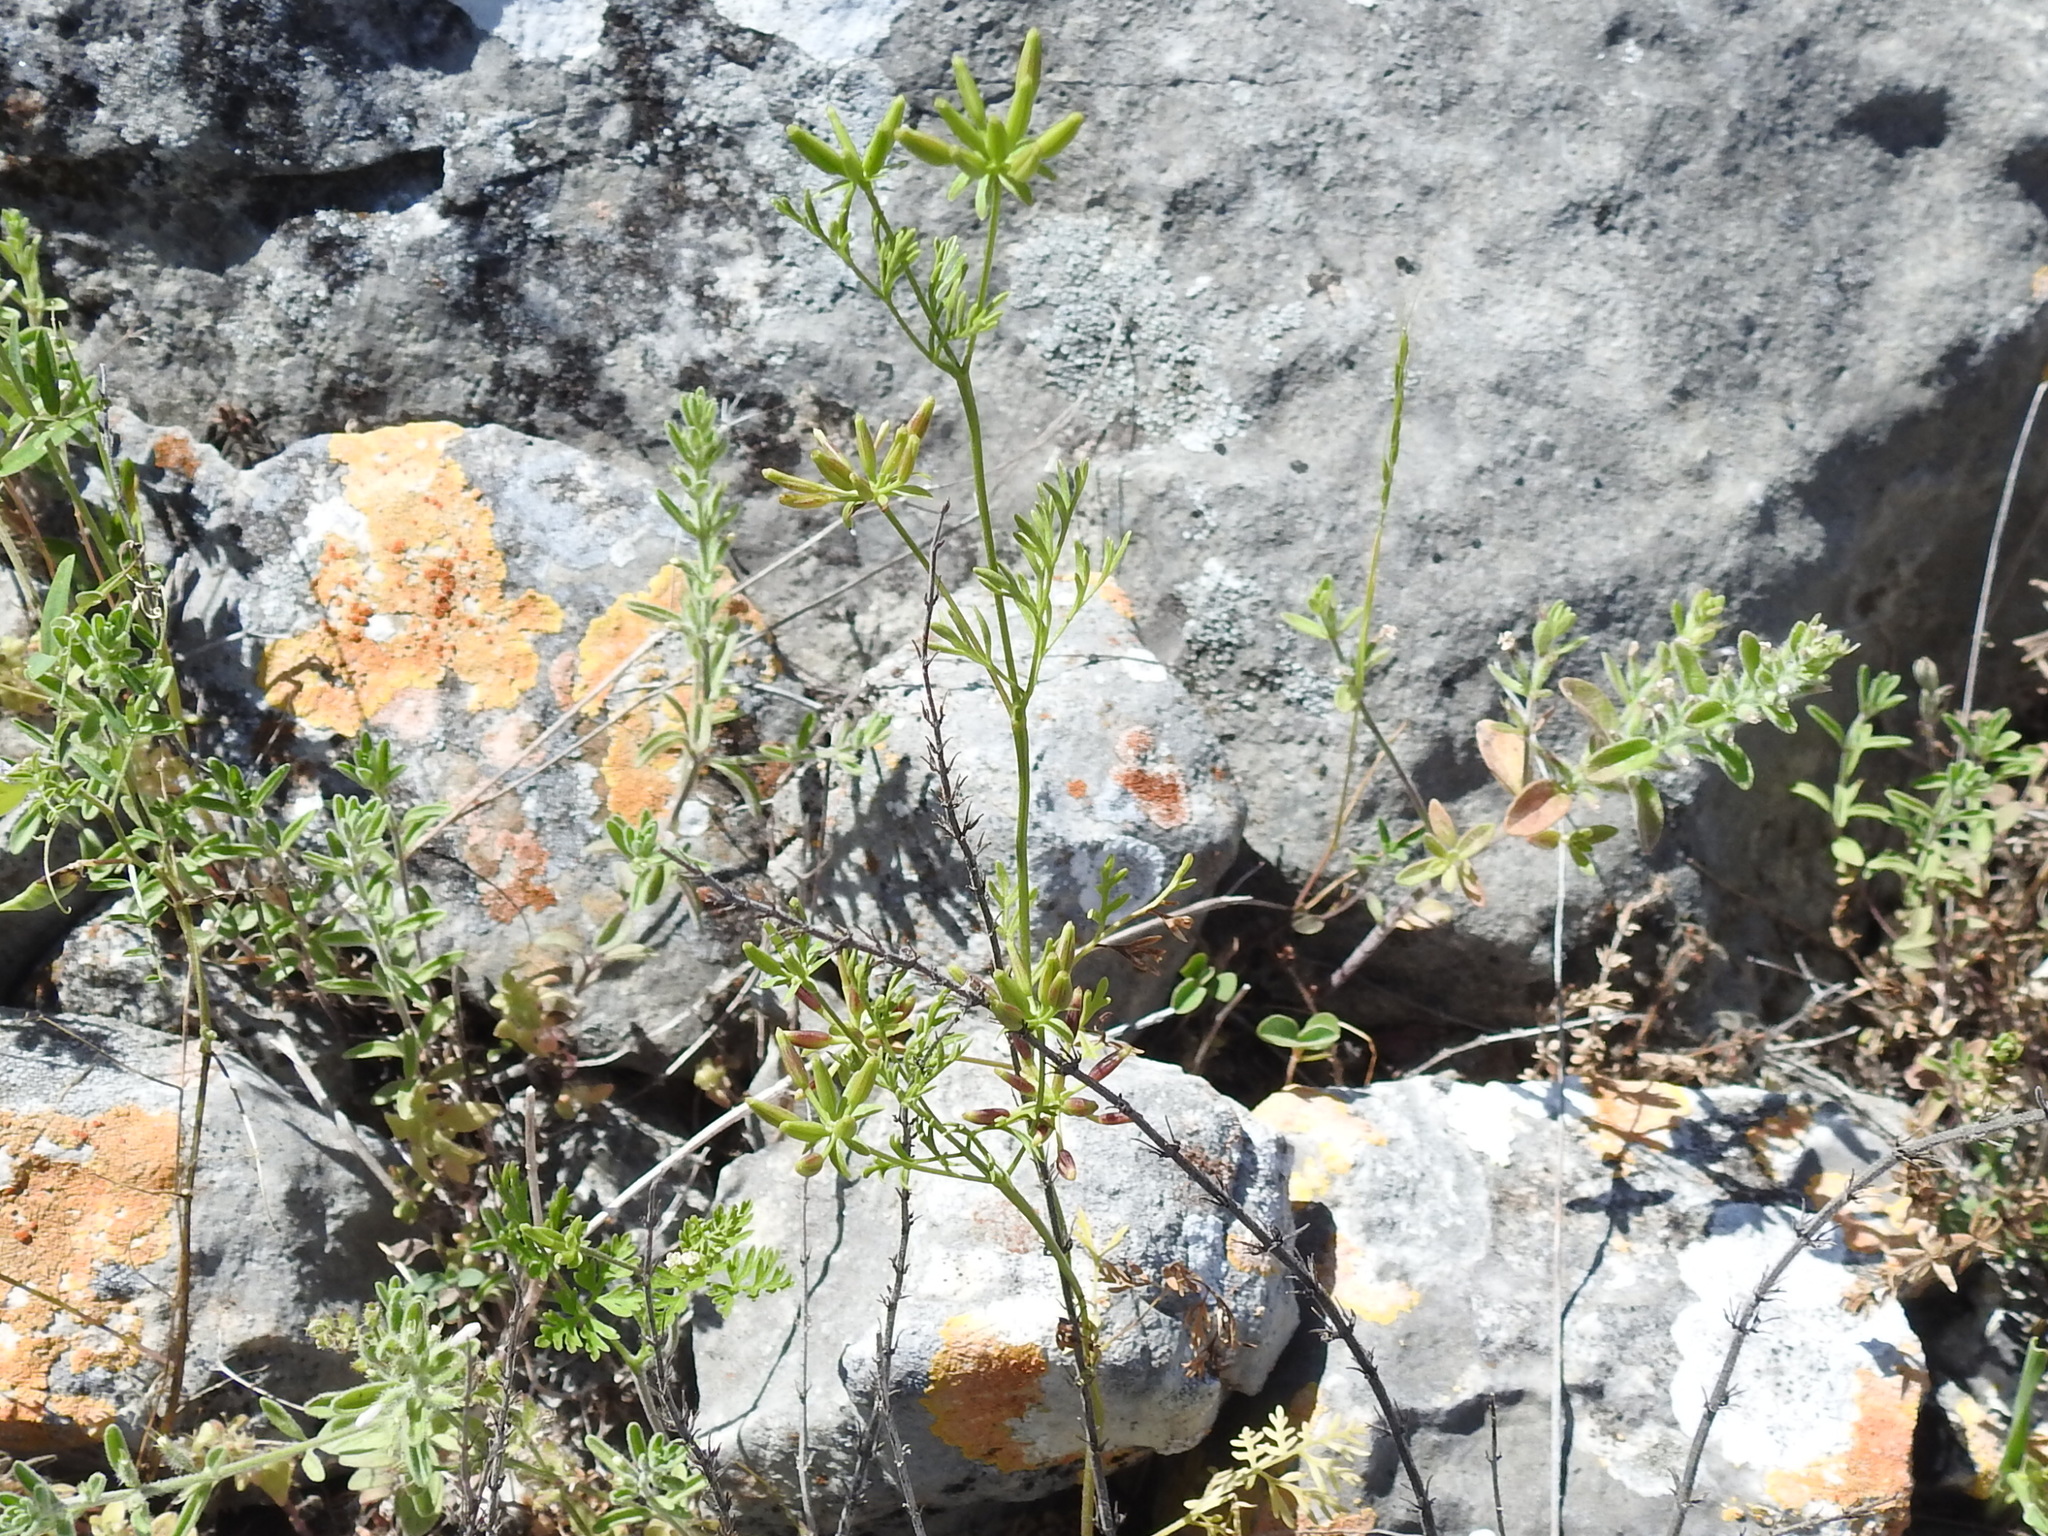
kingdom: Plantae
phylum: Tracheophyta
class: Magnoliopsida
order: Apiales
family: Apiaceae
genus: Chaerophyllum
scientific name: Chaerophyllum tainturieri
